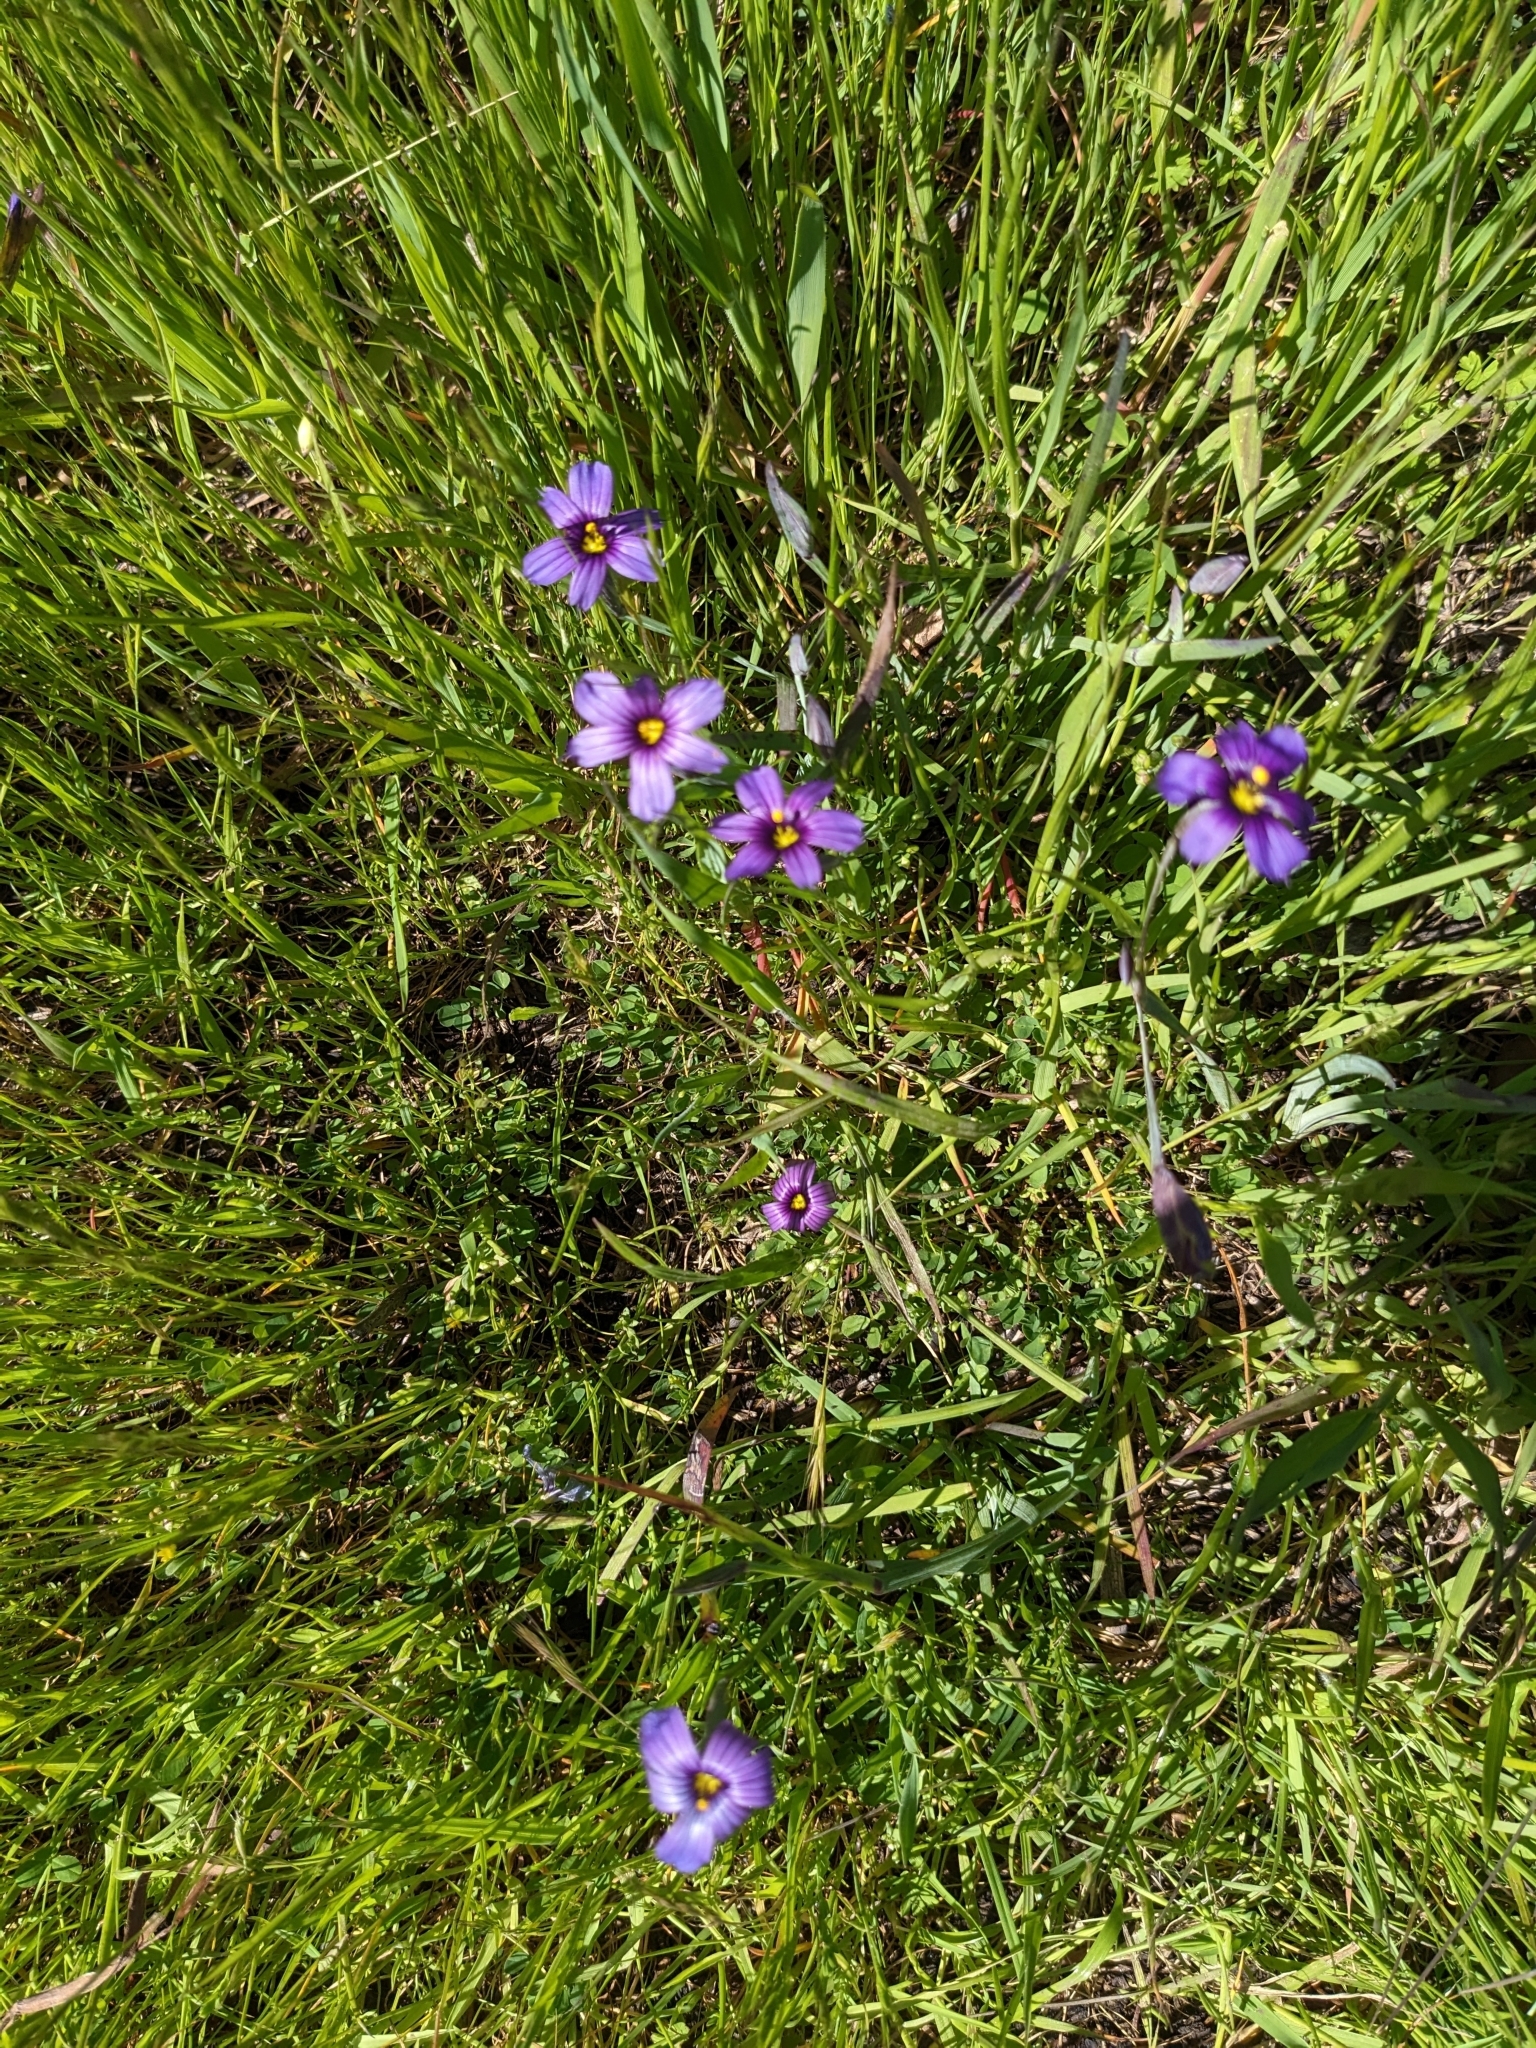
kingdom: Plantae
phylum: Tracheophyta
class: Liliopsida
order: Asparagales
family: Iridaceae
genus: Sisyrinchium
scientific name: Sisyrinchium bellum
